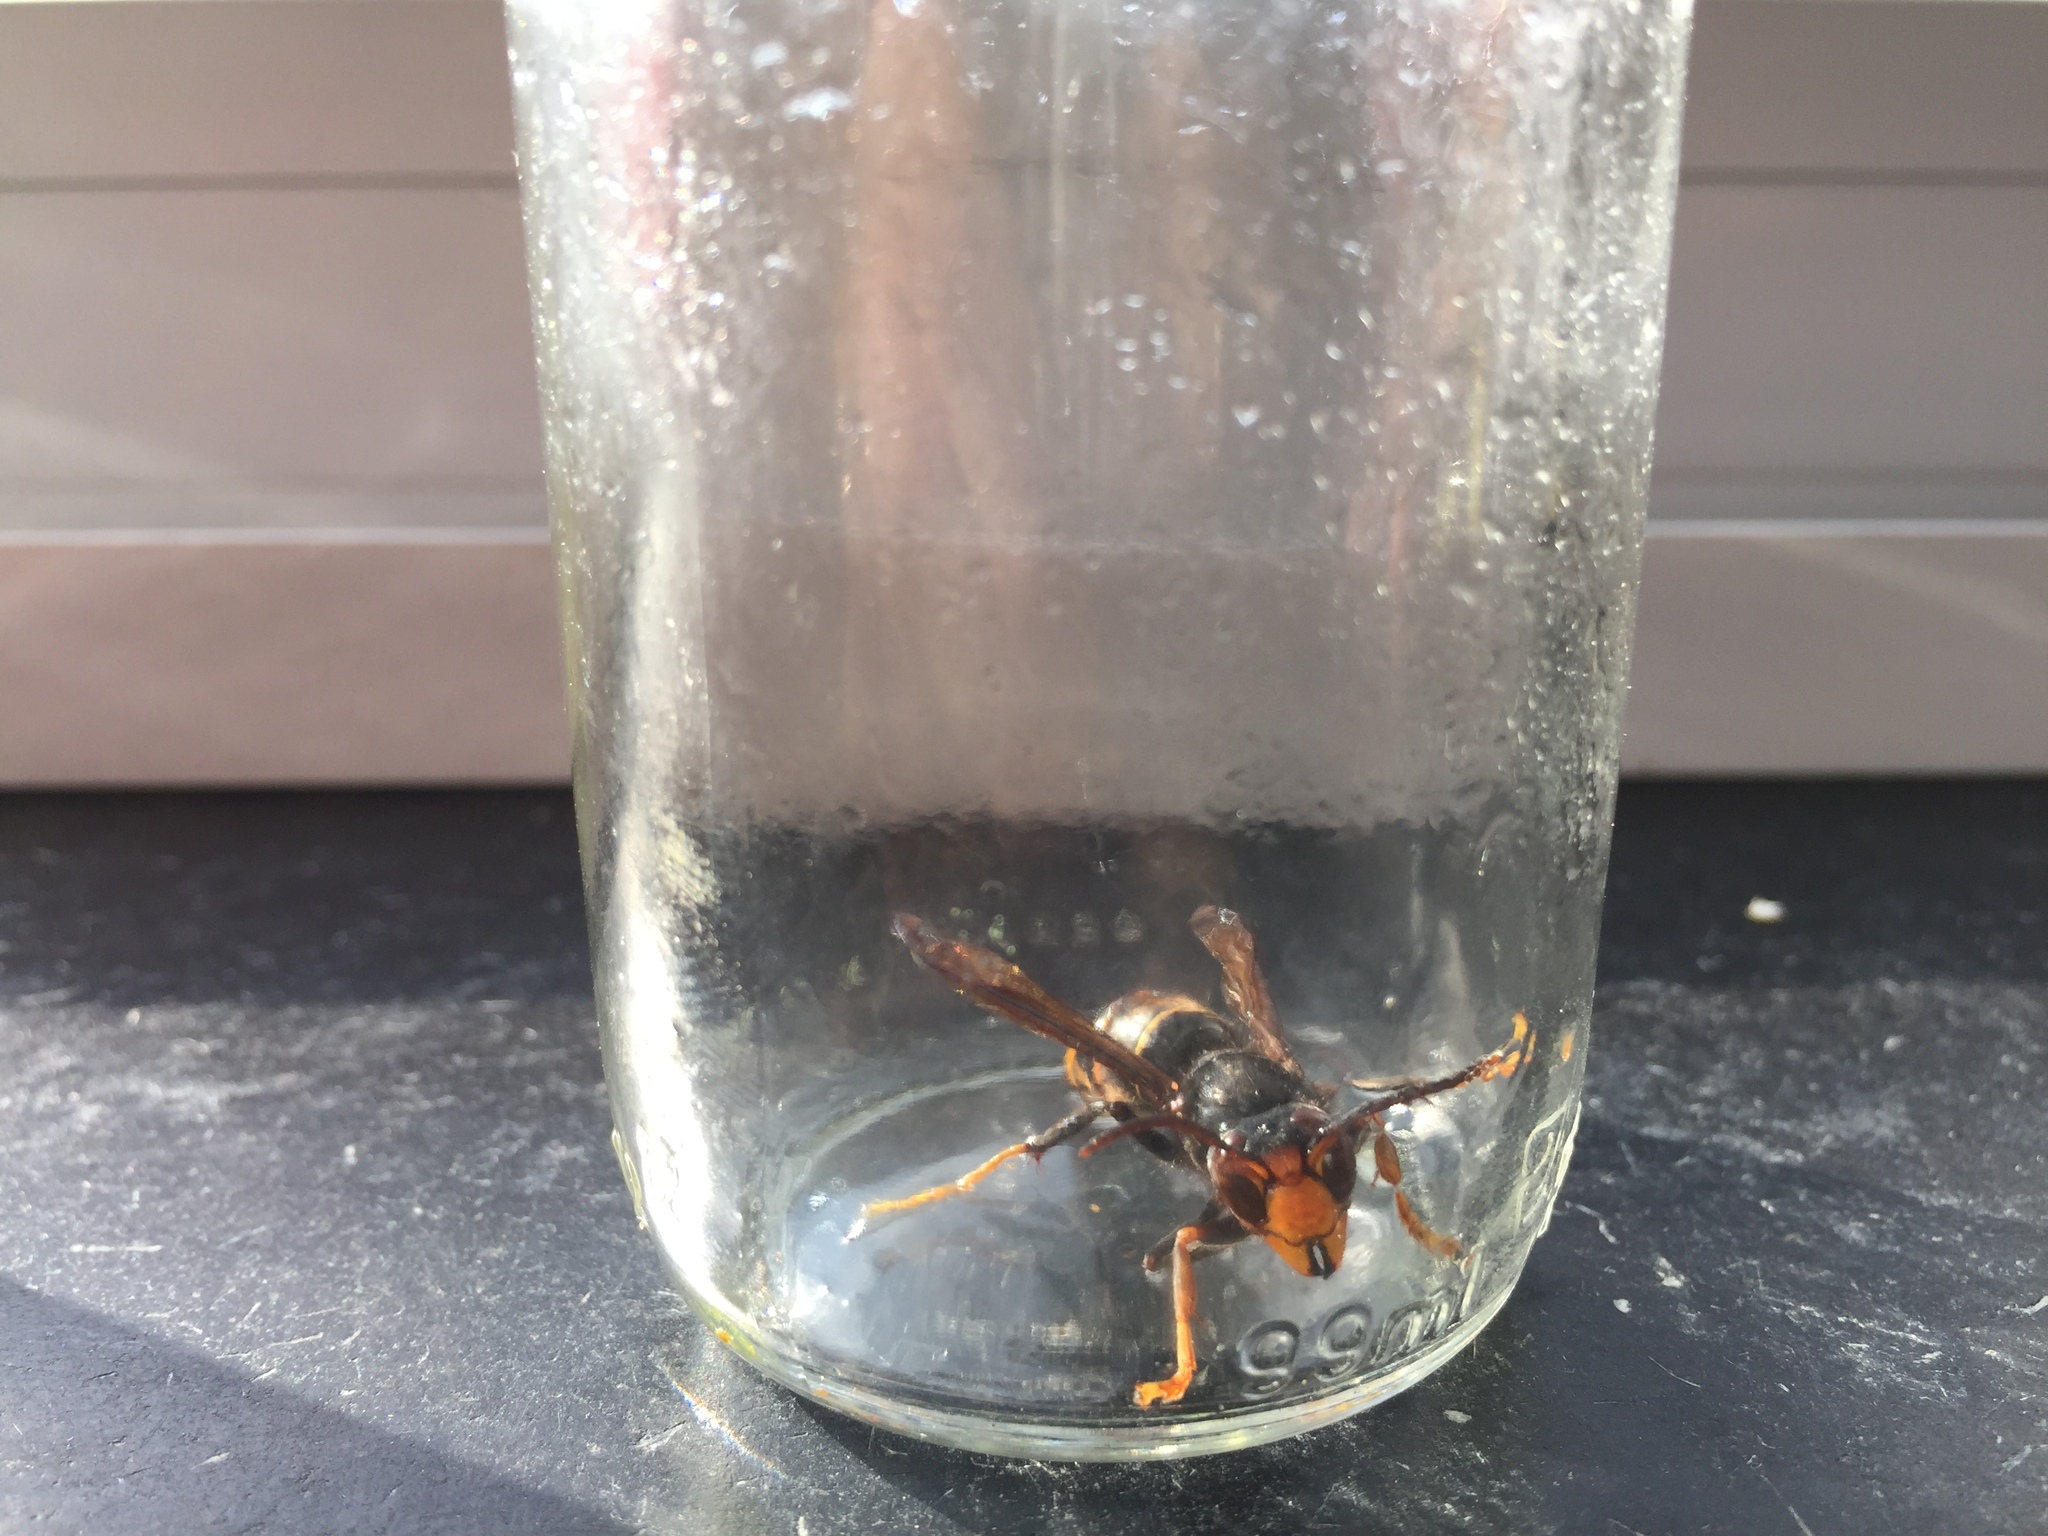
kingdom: Animalia
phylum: Arthropoda
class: Insecta
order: Hymenoptera
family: Vespidae
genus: Vespa
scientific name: Vespa velutina
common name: Asian hornet
